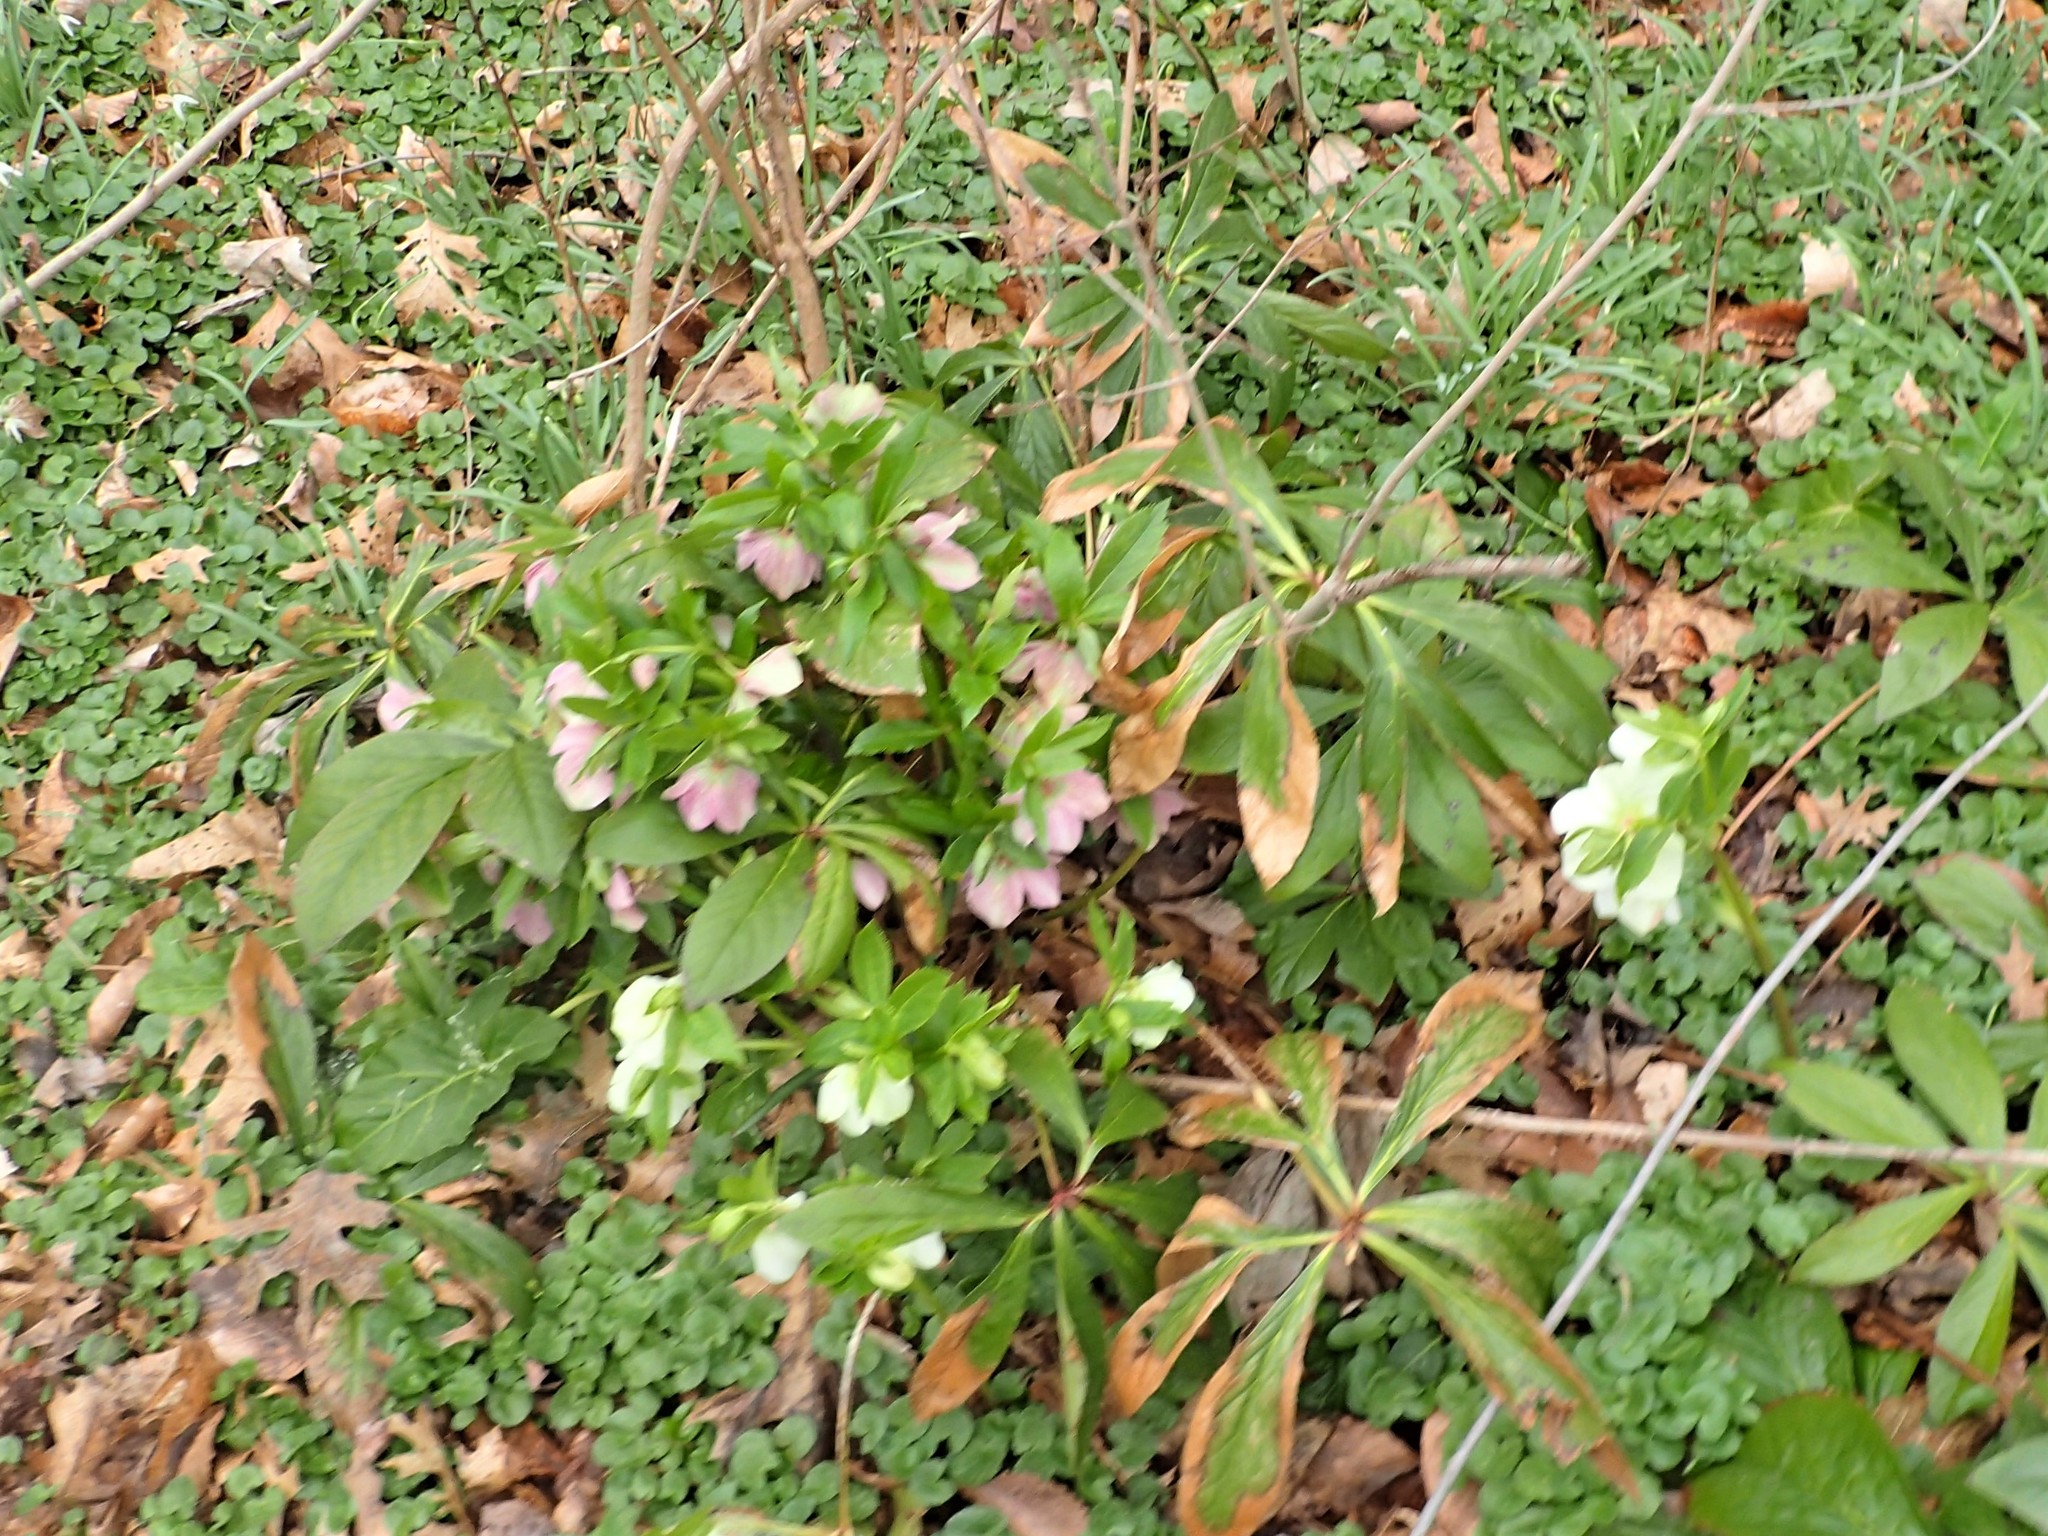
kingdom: Plantae
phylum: Tracheophyta
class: Magnoliopsida
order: Ranunculales
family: Ranunculaceae
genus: Helleborus
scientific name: Helleborus orientalis
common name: Lenten-rose
